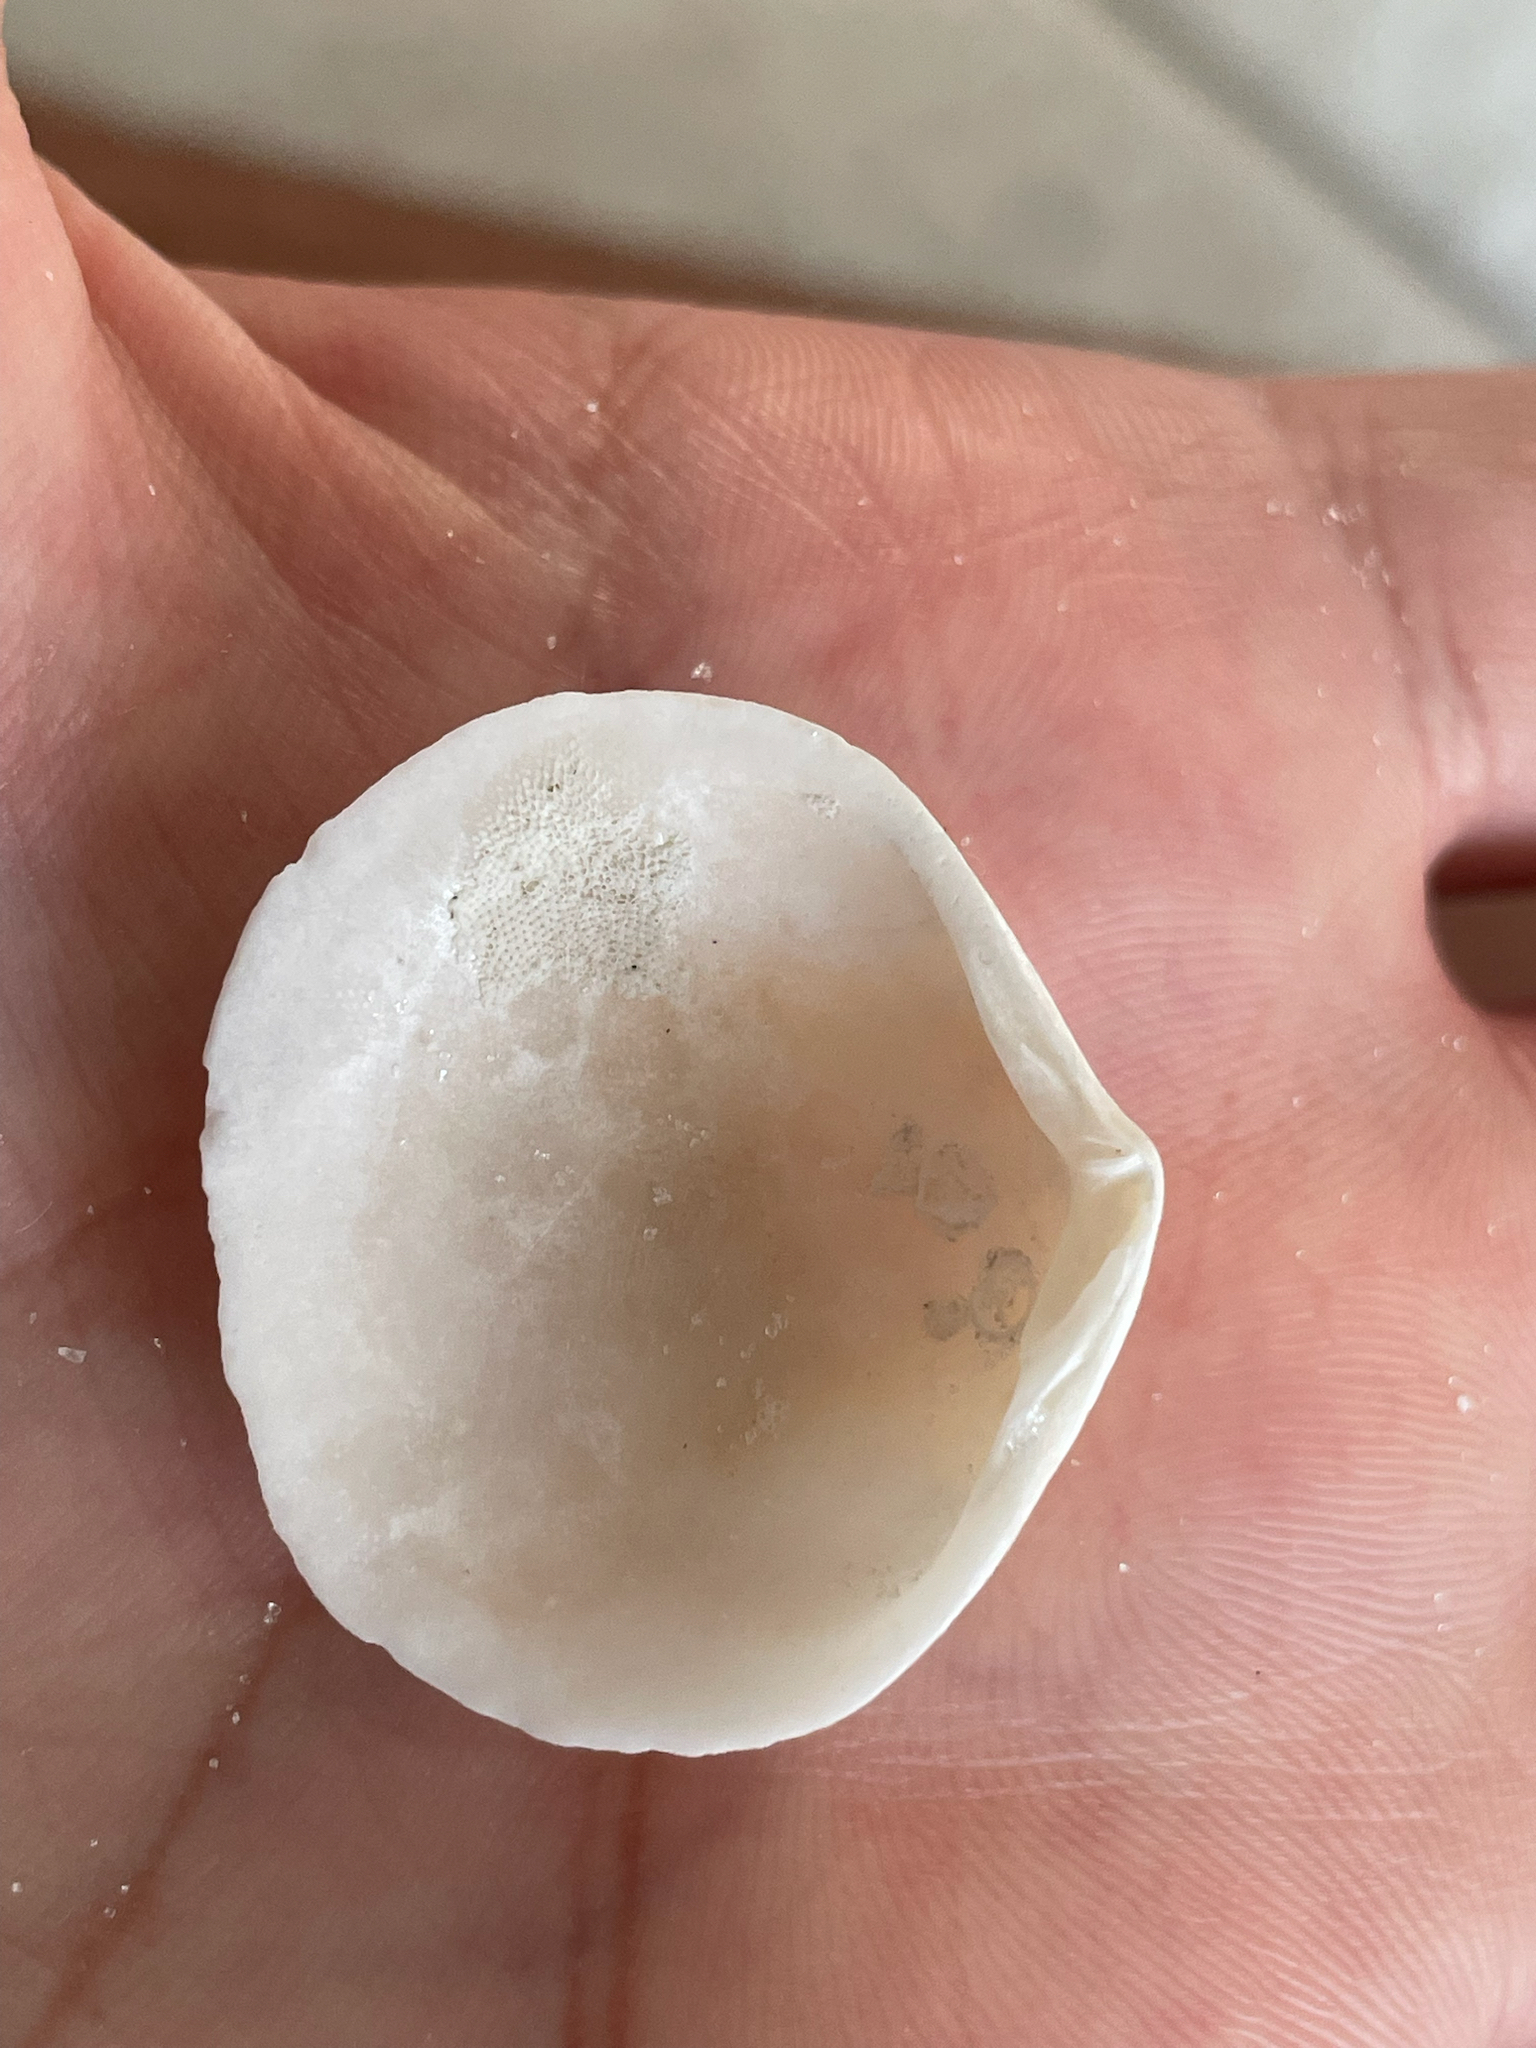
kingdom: Animalia
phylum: Mollusca
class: Bivalvia
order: Cardiida
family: Semelidae
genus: Semele
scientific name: Semele proficua
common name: White atlantic semele
